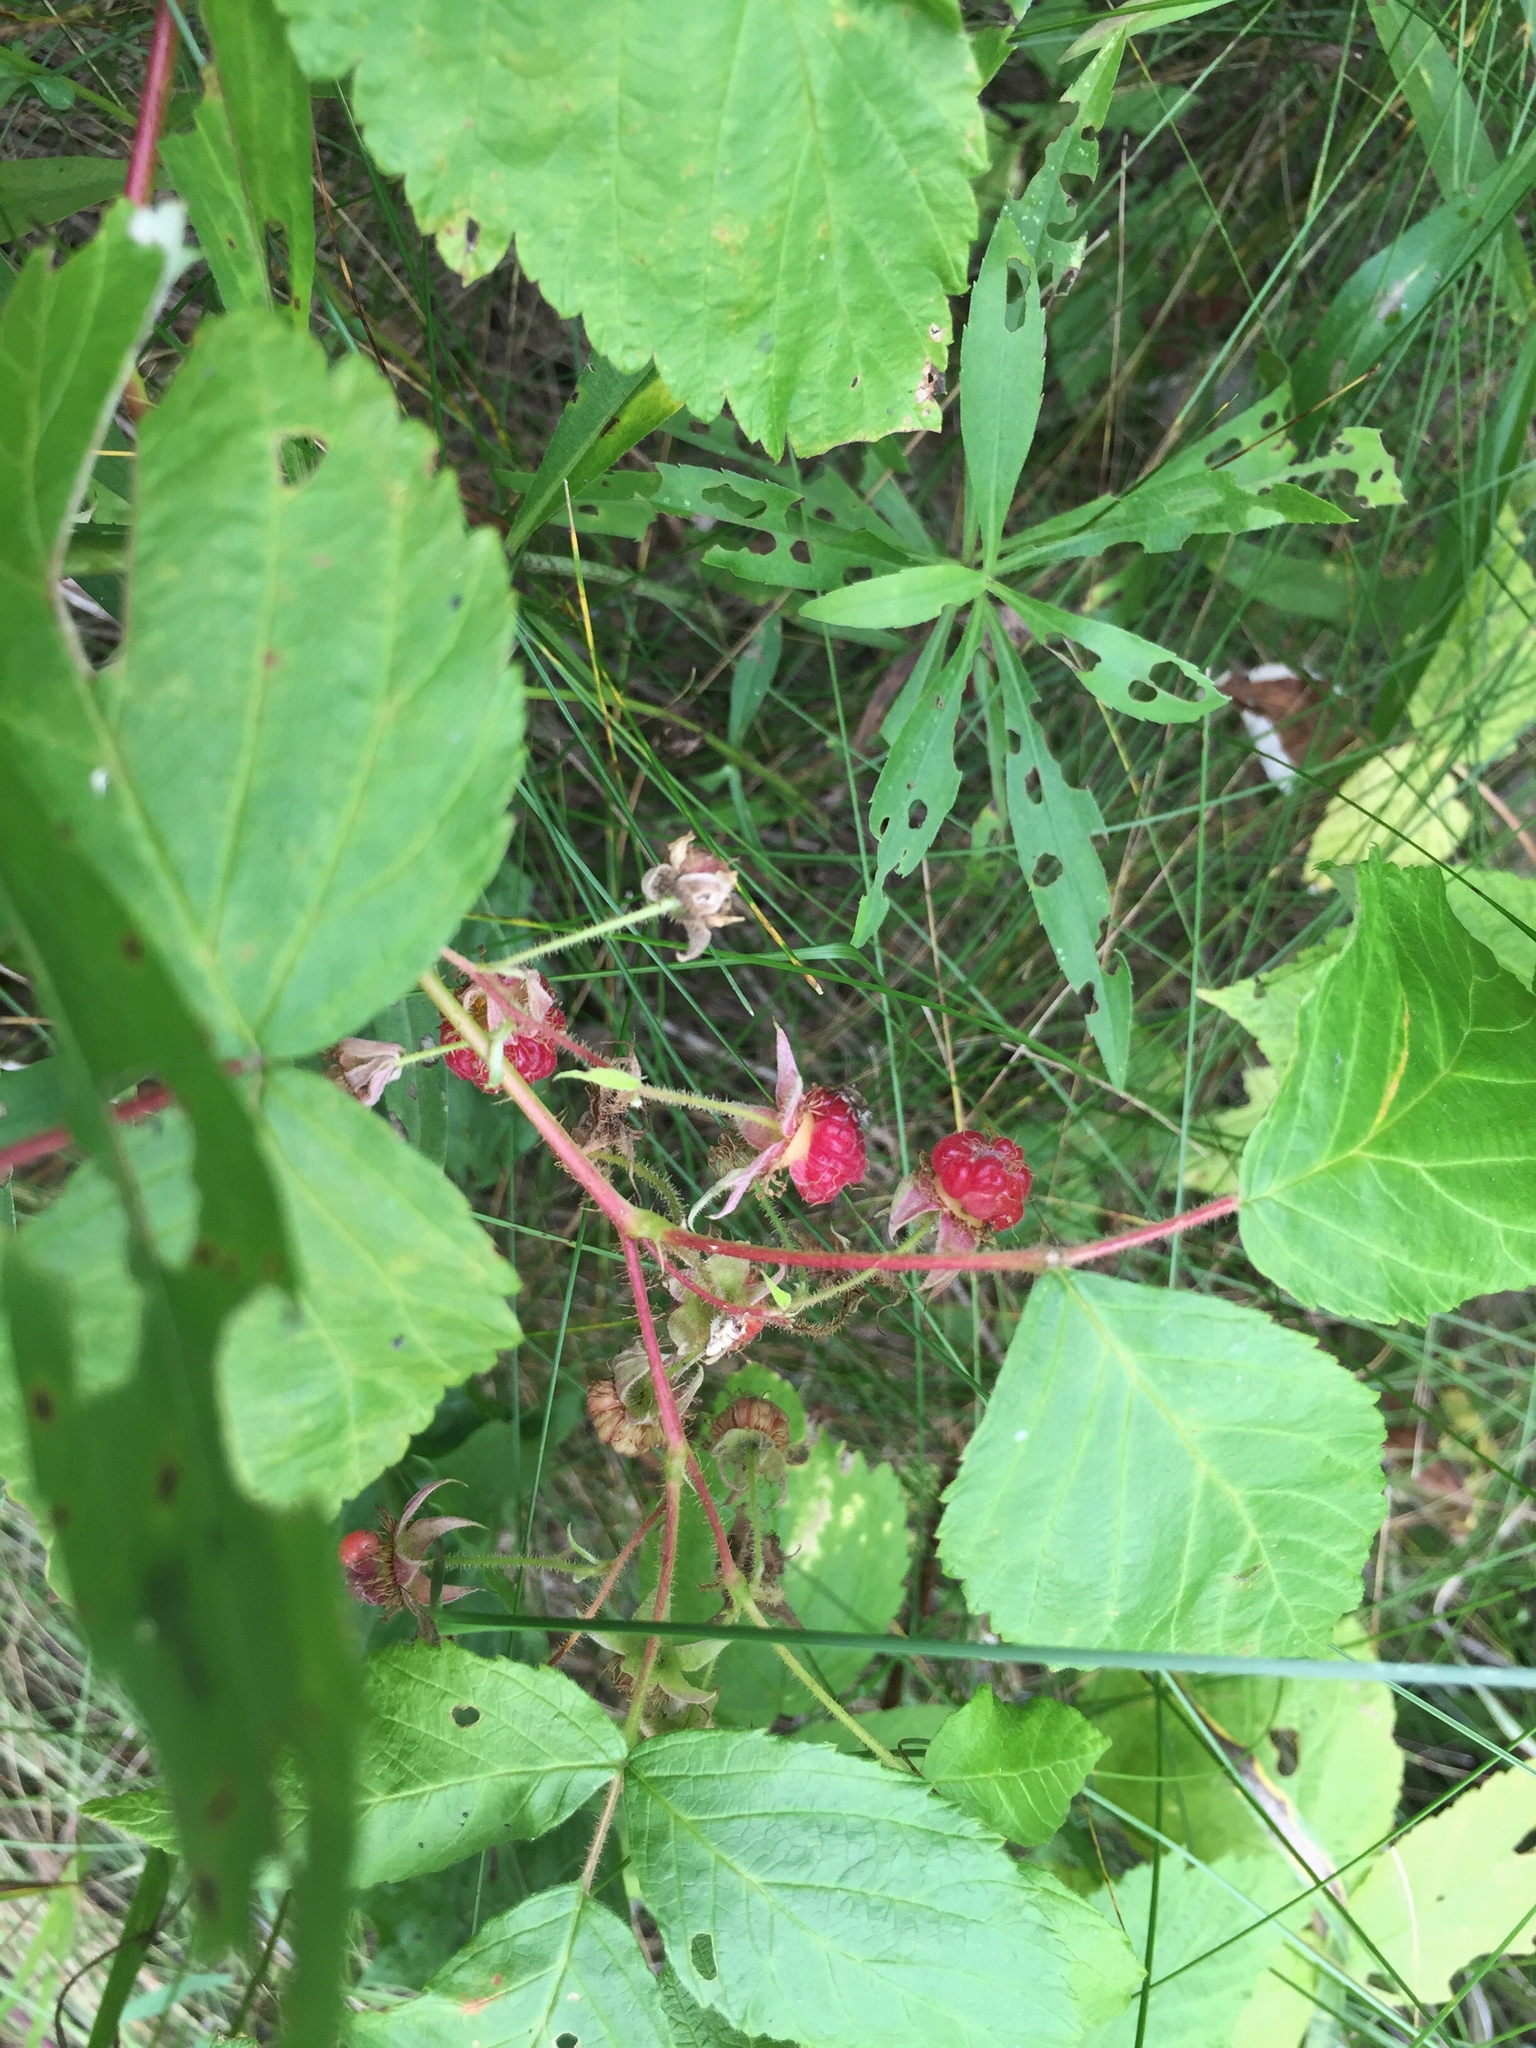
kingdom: Plantae
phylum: Tracheophyta
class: Magnoliopsida
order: Rosales
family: Rosaceae
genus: Rubus
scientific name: Rubus idaeus
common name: Raspberry
